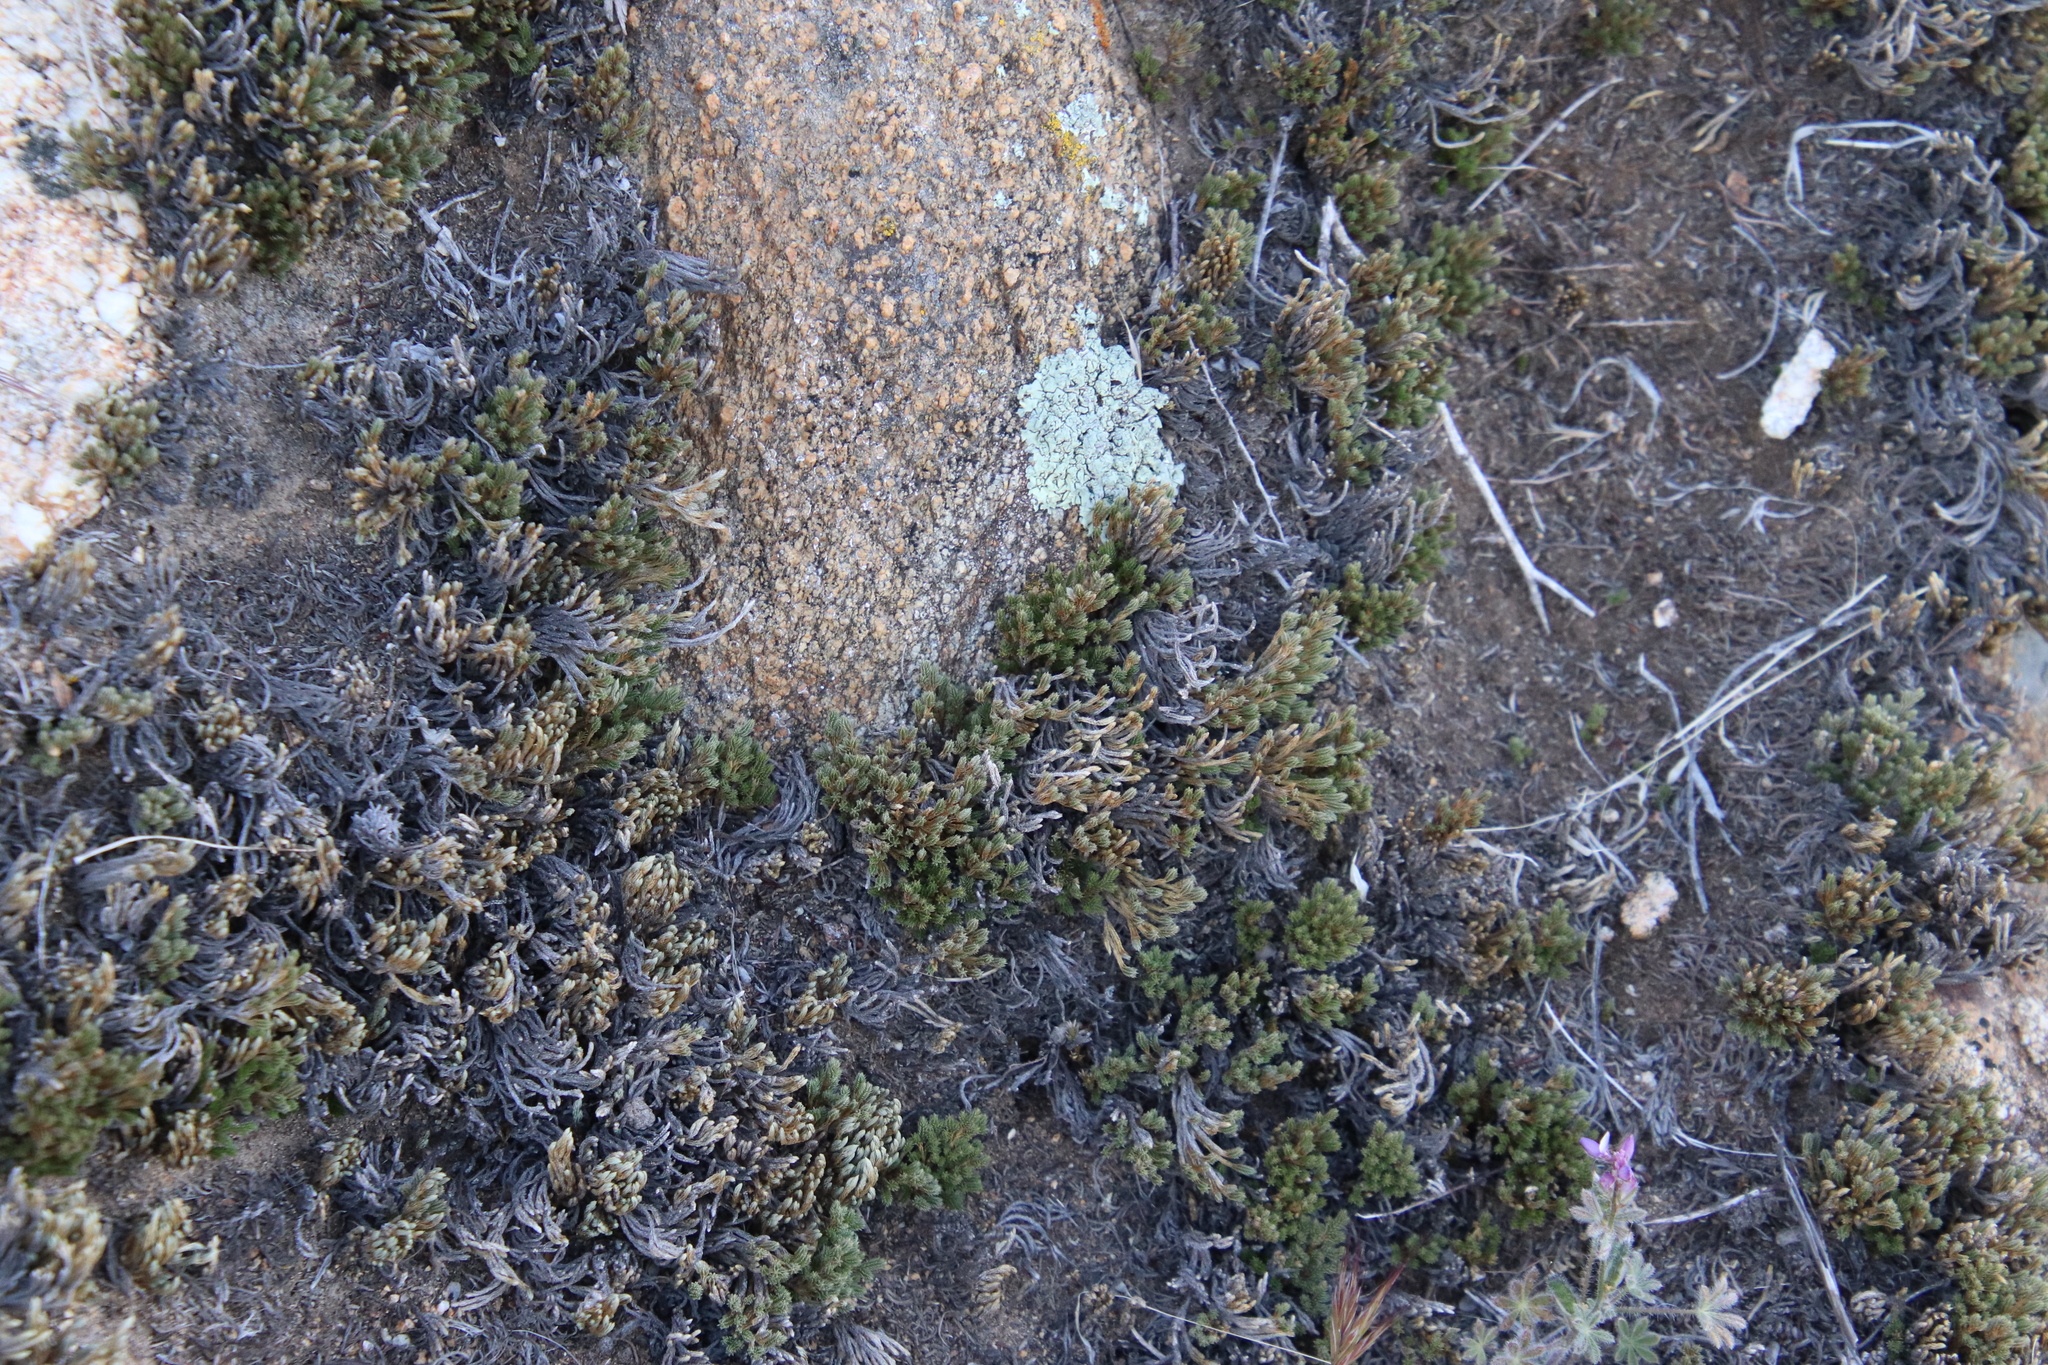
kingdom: Plantae
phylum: Tracheophyta
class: Lycopodiopsida
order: Selaginellales
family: Selaginellaceae
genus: Selaginella
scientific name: Selaginella bigelovii
